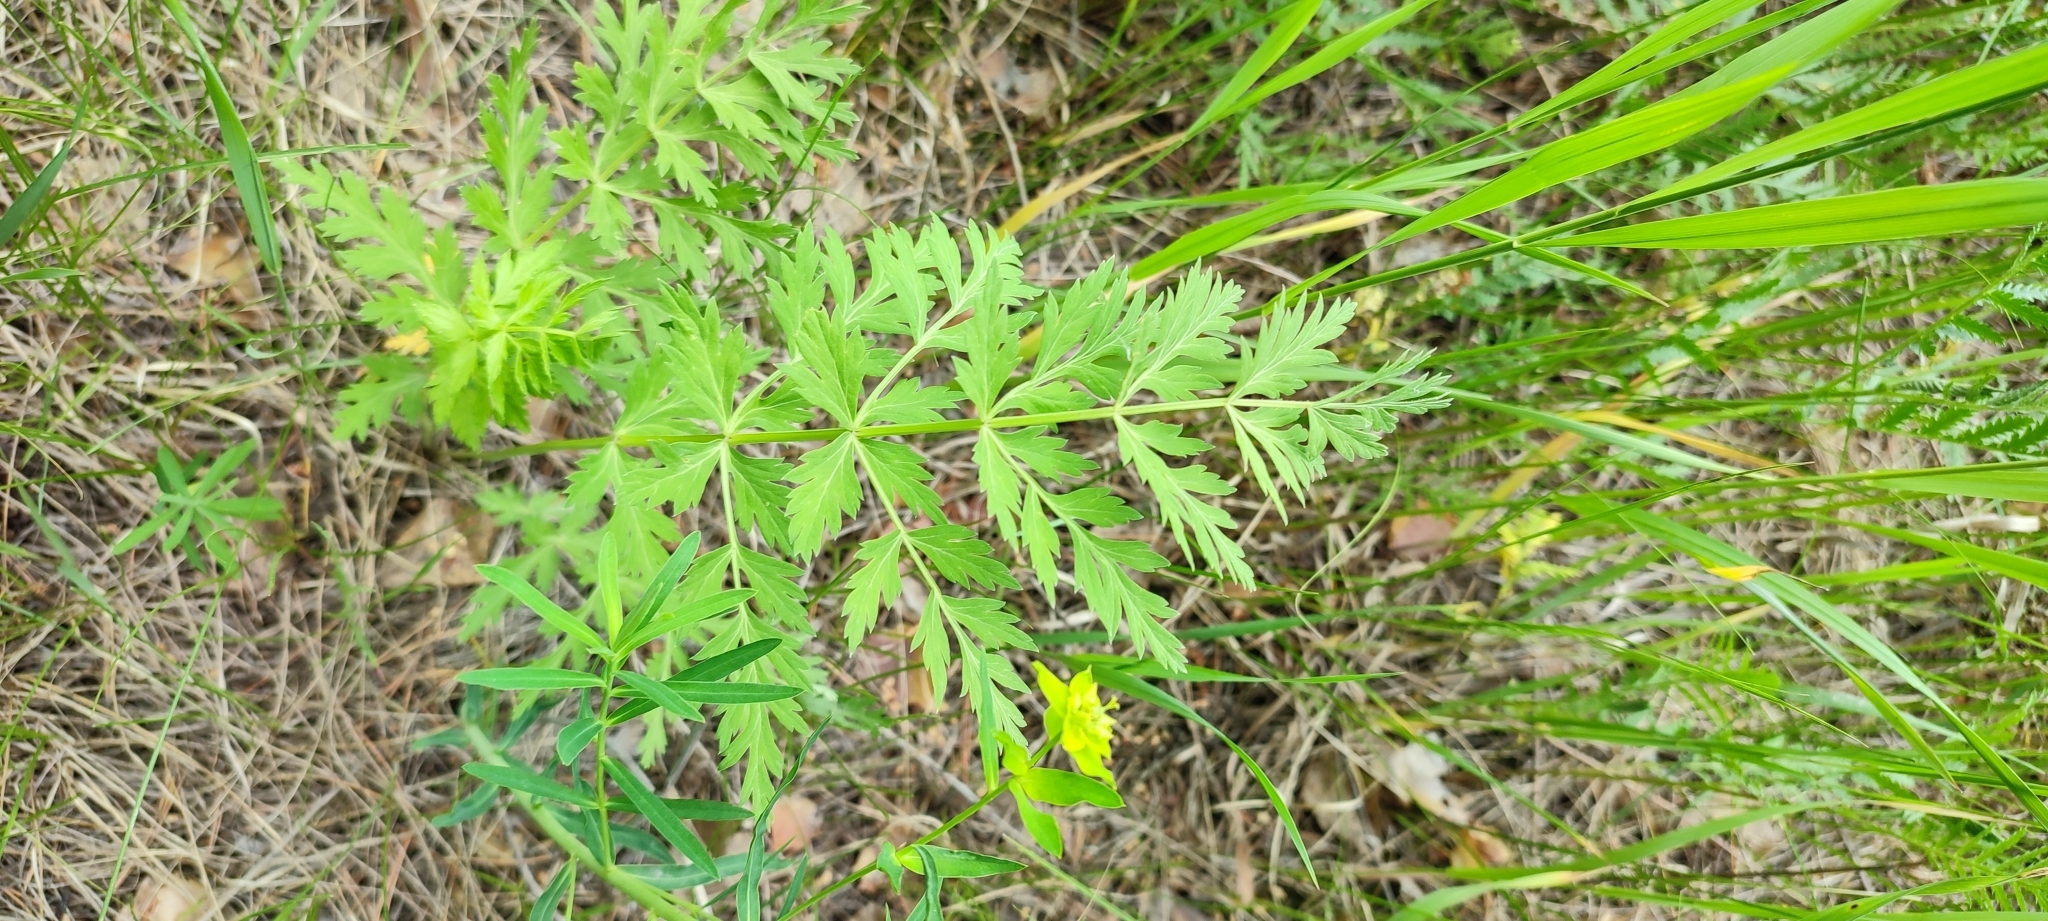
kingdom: Plantae
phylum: Tracheophyta
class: Magnoliopsida
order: Apiales
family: Apiaceae
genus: Seseli
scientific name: Seseli libanotis
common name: Mooncarrot
